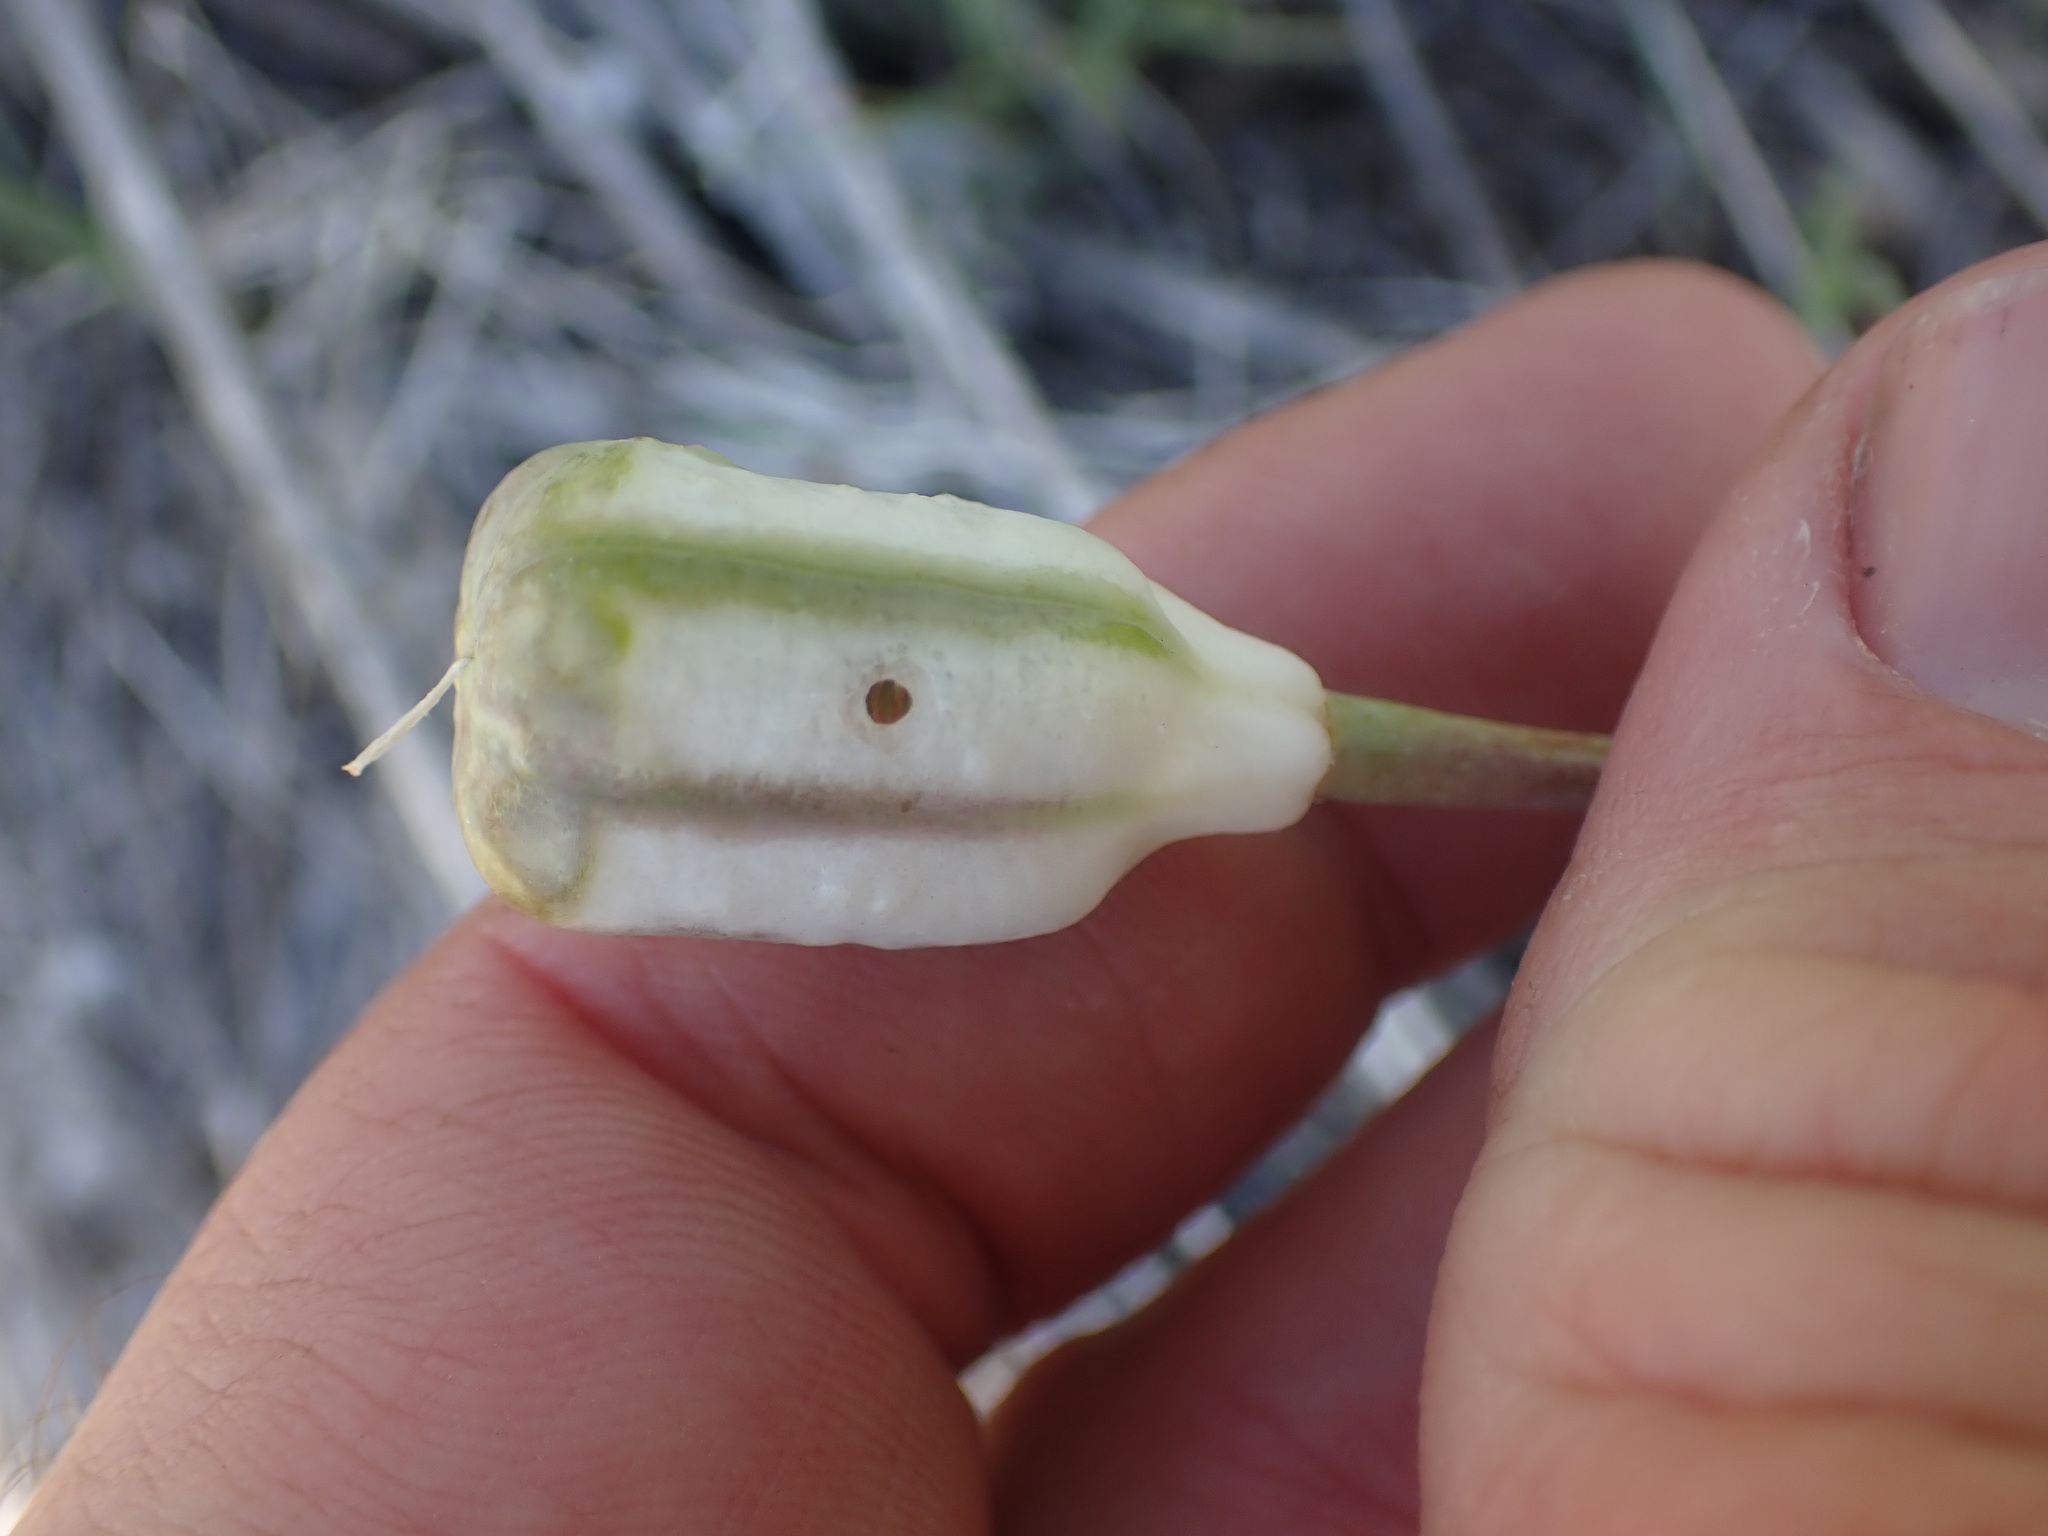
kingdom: Plantae
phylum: Tracheophyta
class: Liliopsida
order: Liliales
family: Liliaceae
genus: Fritillaria
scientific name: Fritillaria pudica
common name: Yellow fritillary
